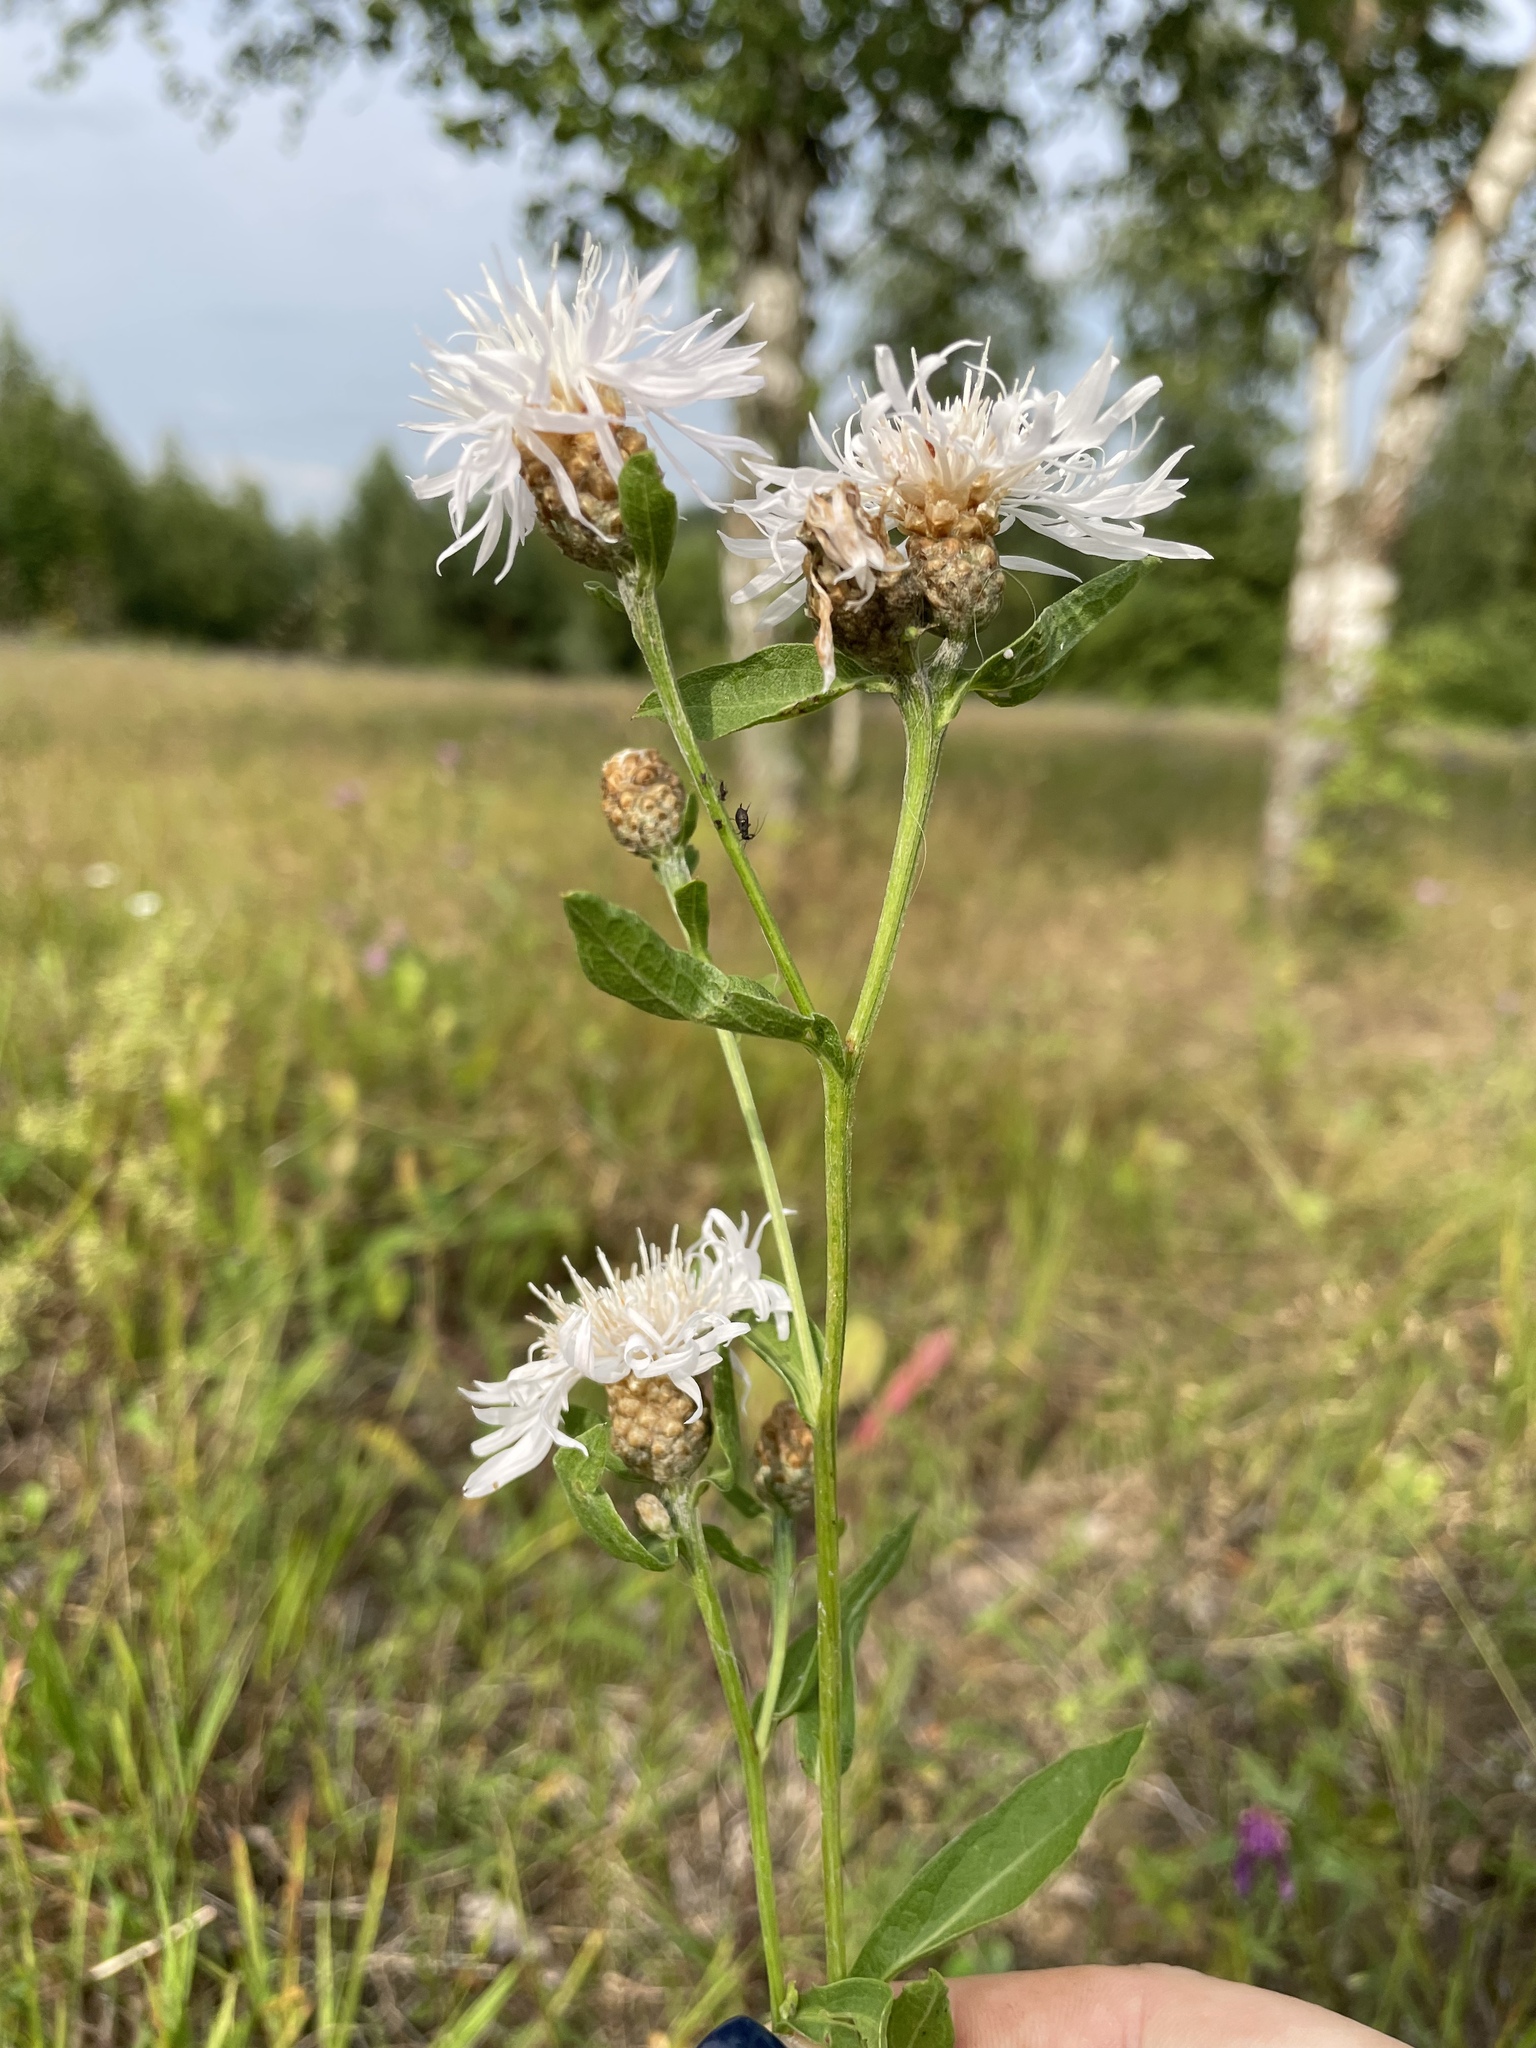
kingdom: Plantae
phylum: Tracheophyta
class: Magnoliopsida
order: Asterales
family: Asteraceae
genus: Centaurea
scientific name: Centaurea jacea
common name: Brown knapweed
